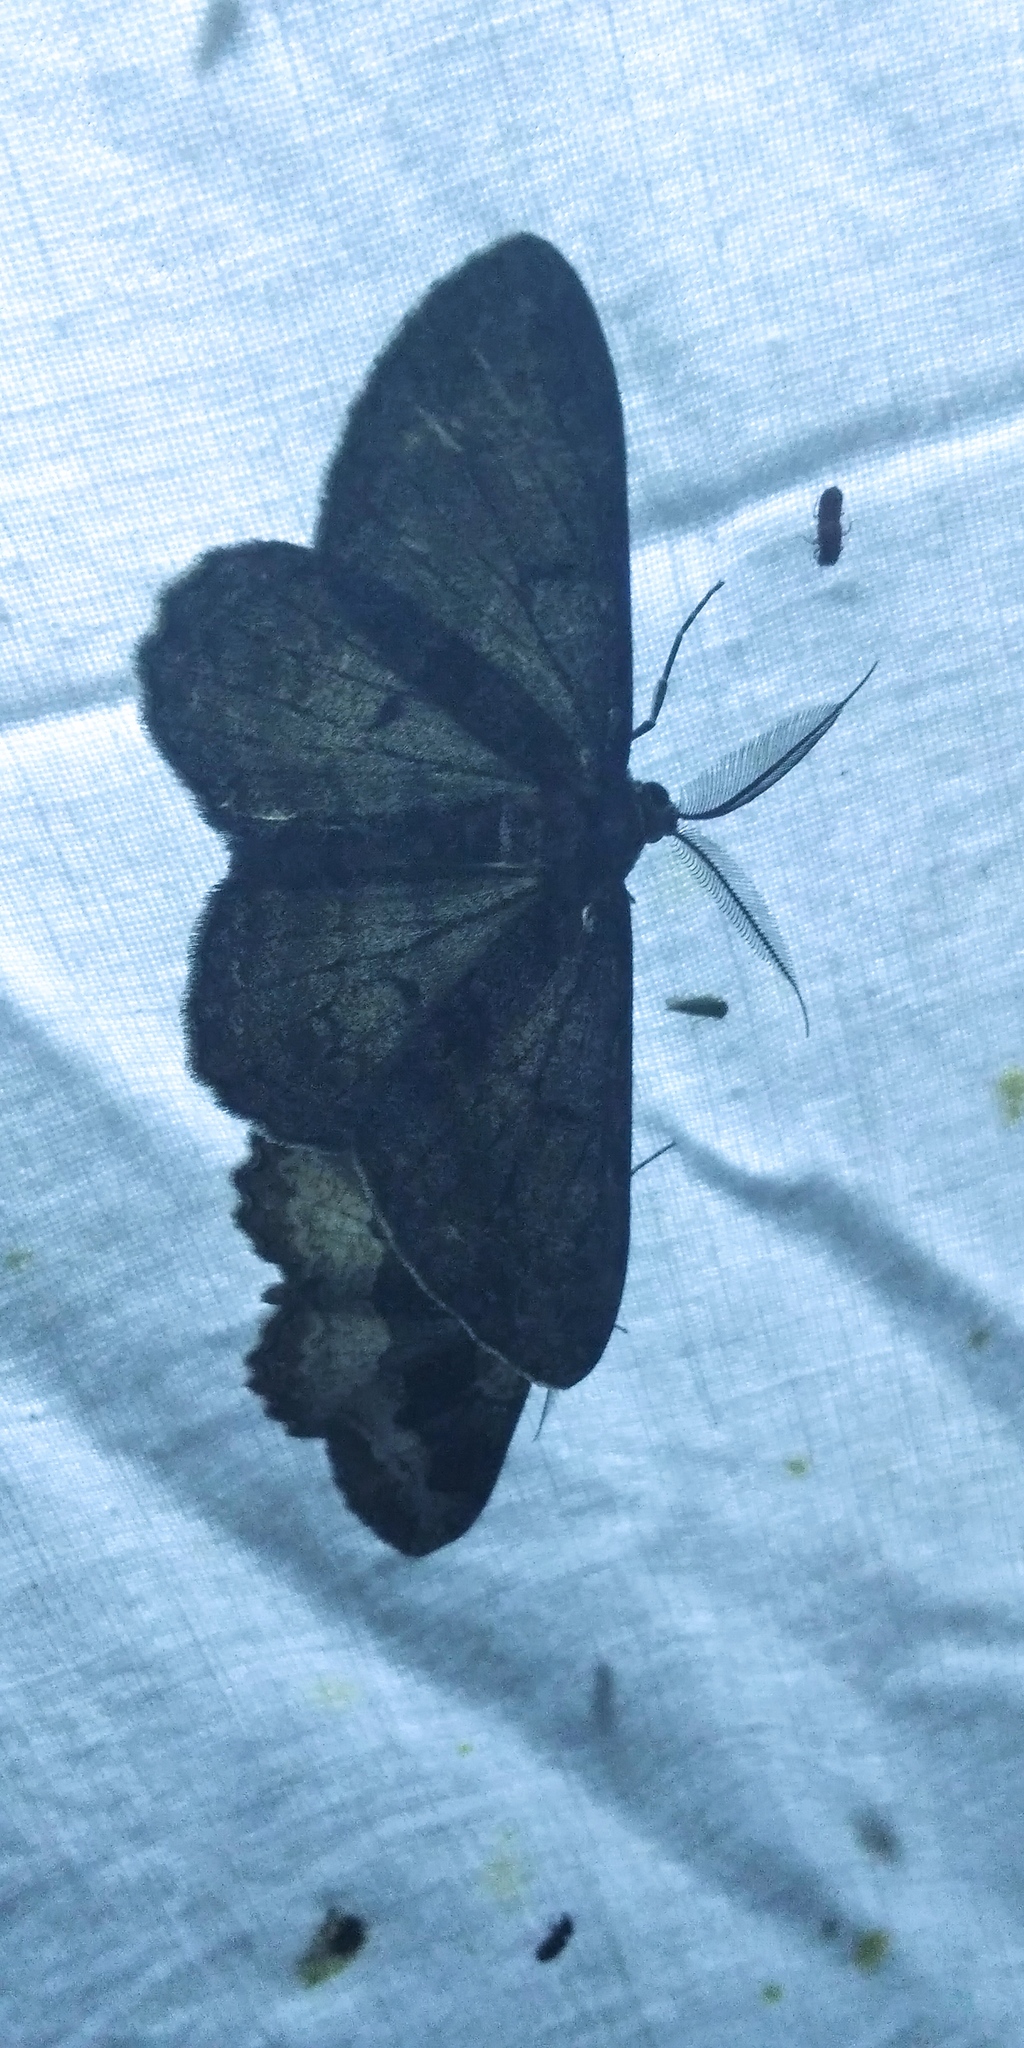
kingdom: Animalia
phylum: Arthropoda
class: Insecta
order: Lepidoptera
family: Geometridae
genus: Hypomecis
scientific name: Hypomecis roboraria
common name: Great oak beauty
